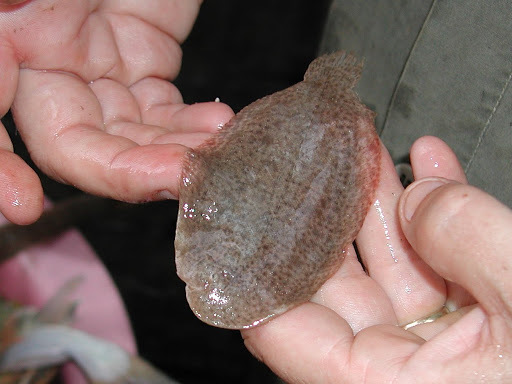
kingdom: Animalia
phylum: Chordata
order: Pleuronectiformes
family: Achiridae
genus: Apionichthys
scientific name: Apionichthys finis
